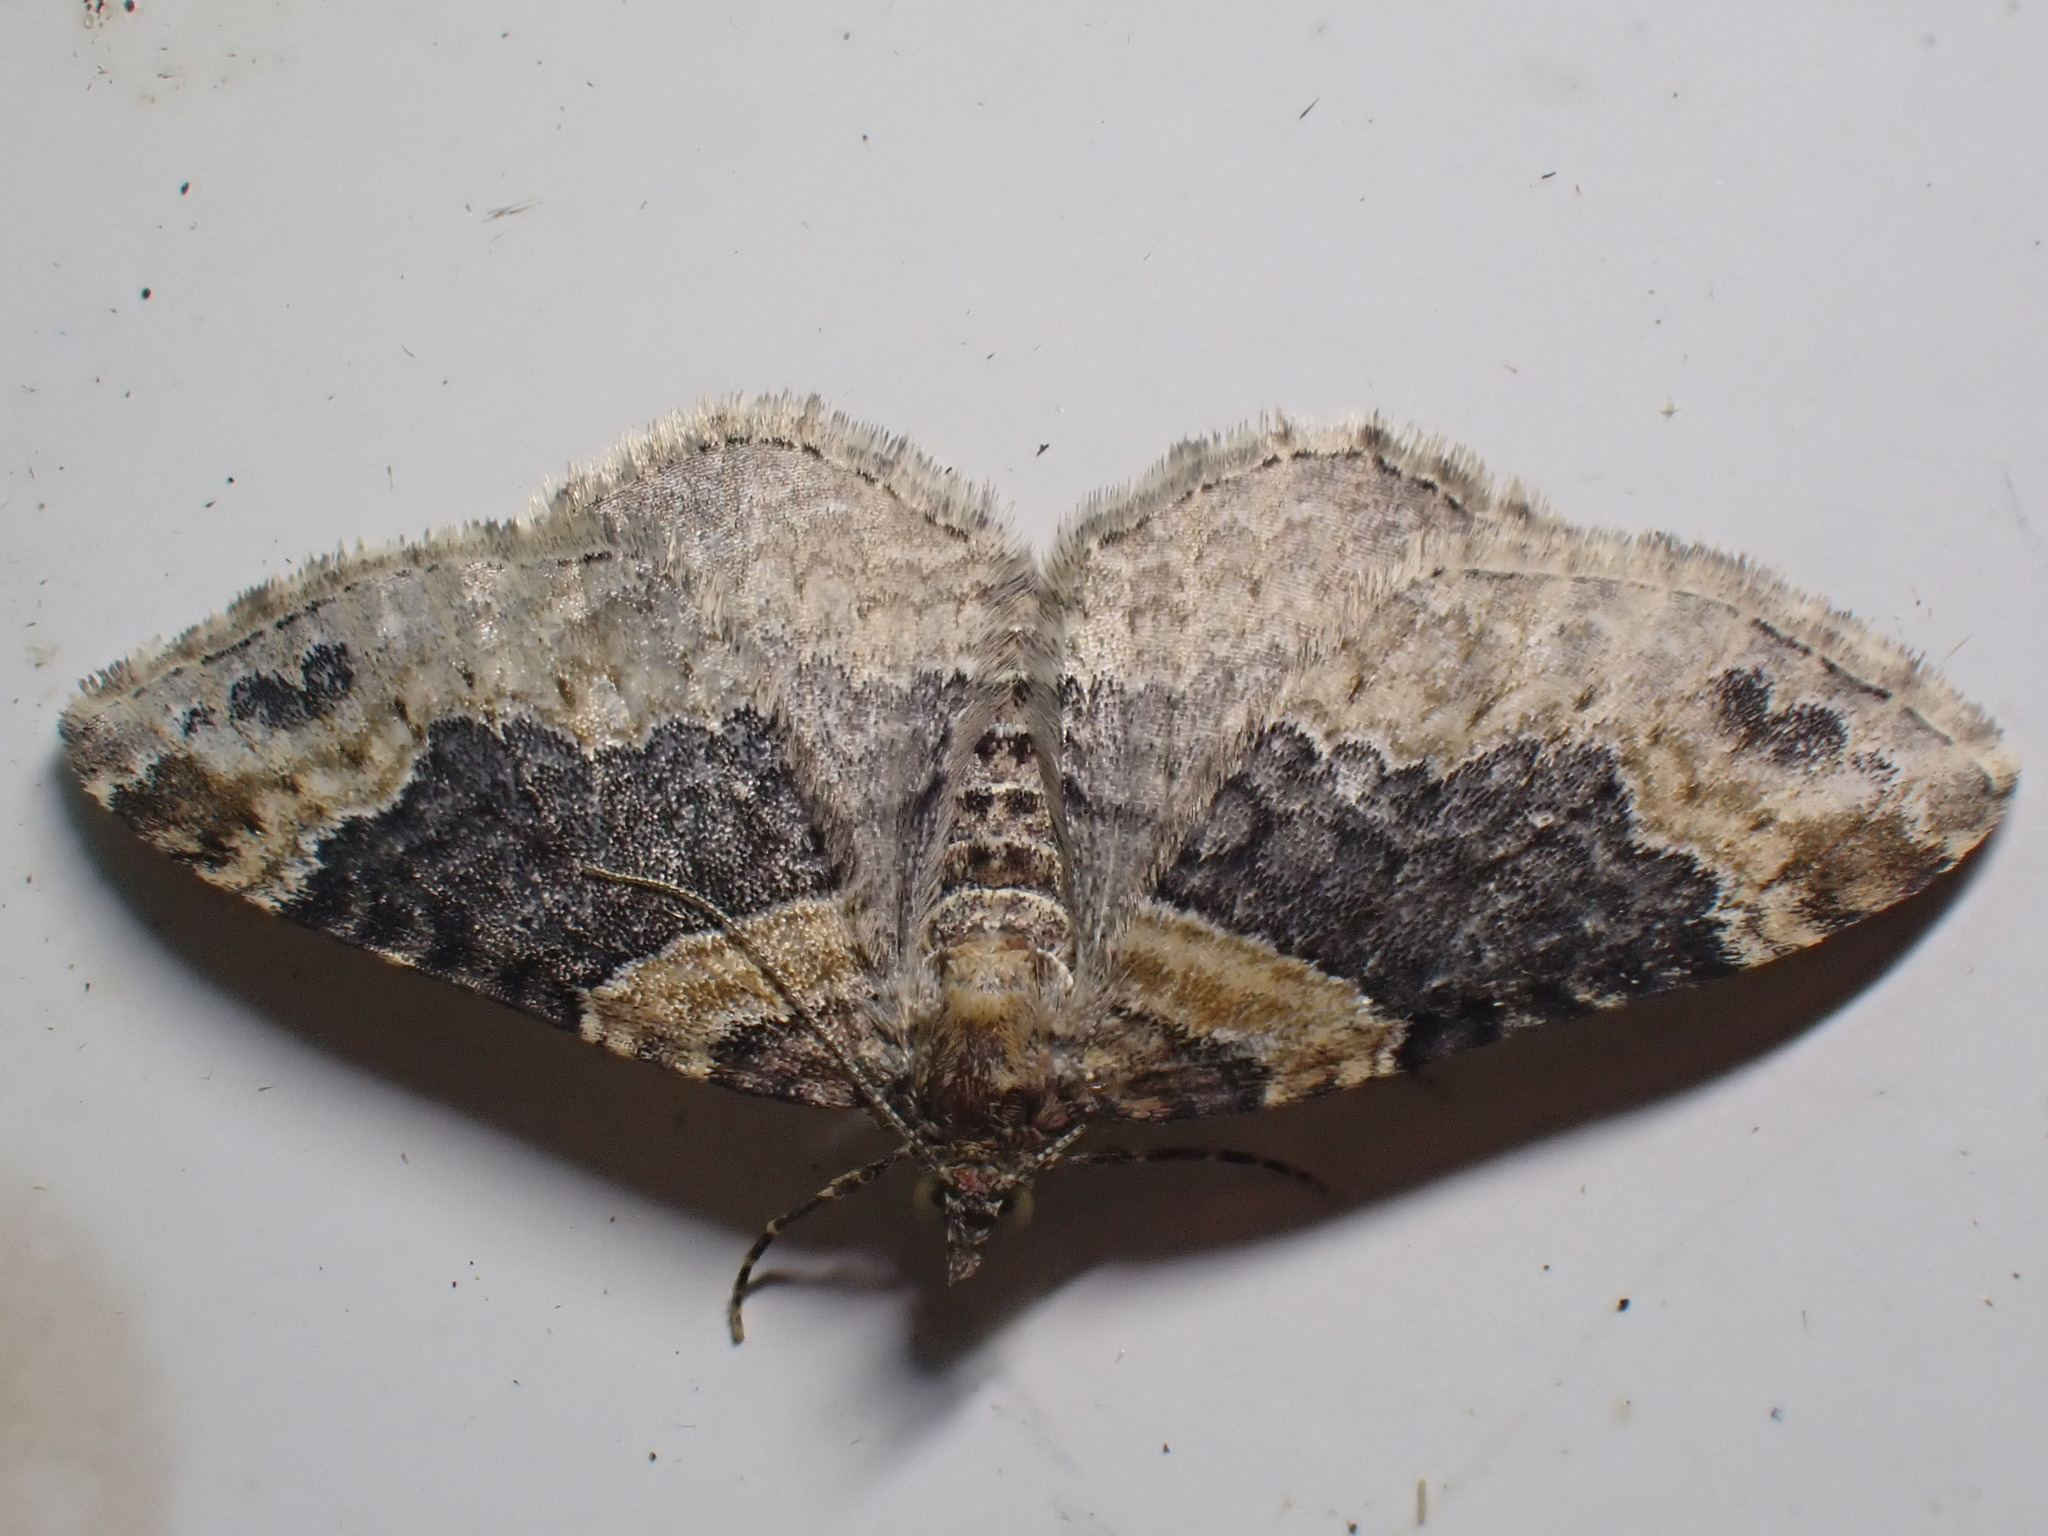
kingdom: Animalia
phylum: Arthropoda
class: Insecta
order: Lepidoptera
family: Geometridae
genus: Xanthorhoe
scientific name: Xanthorhoe ferrugata
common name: Dark-barred twin-spot carpet
